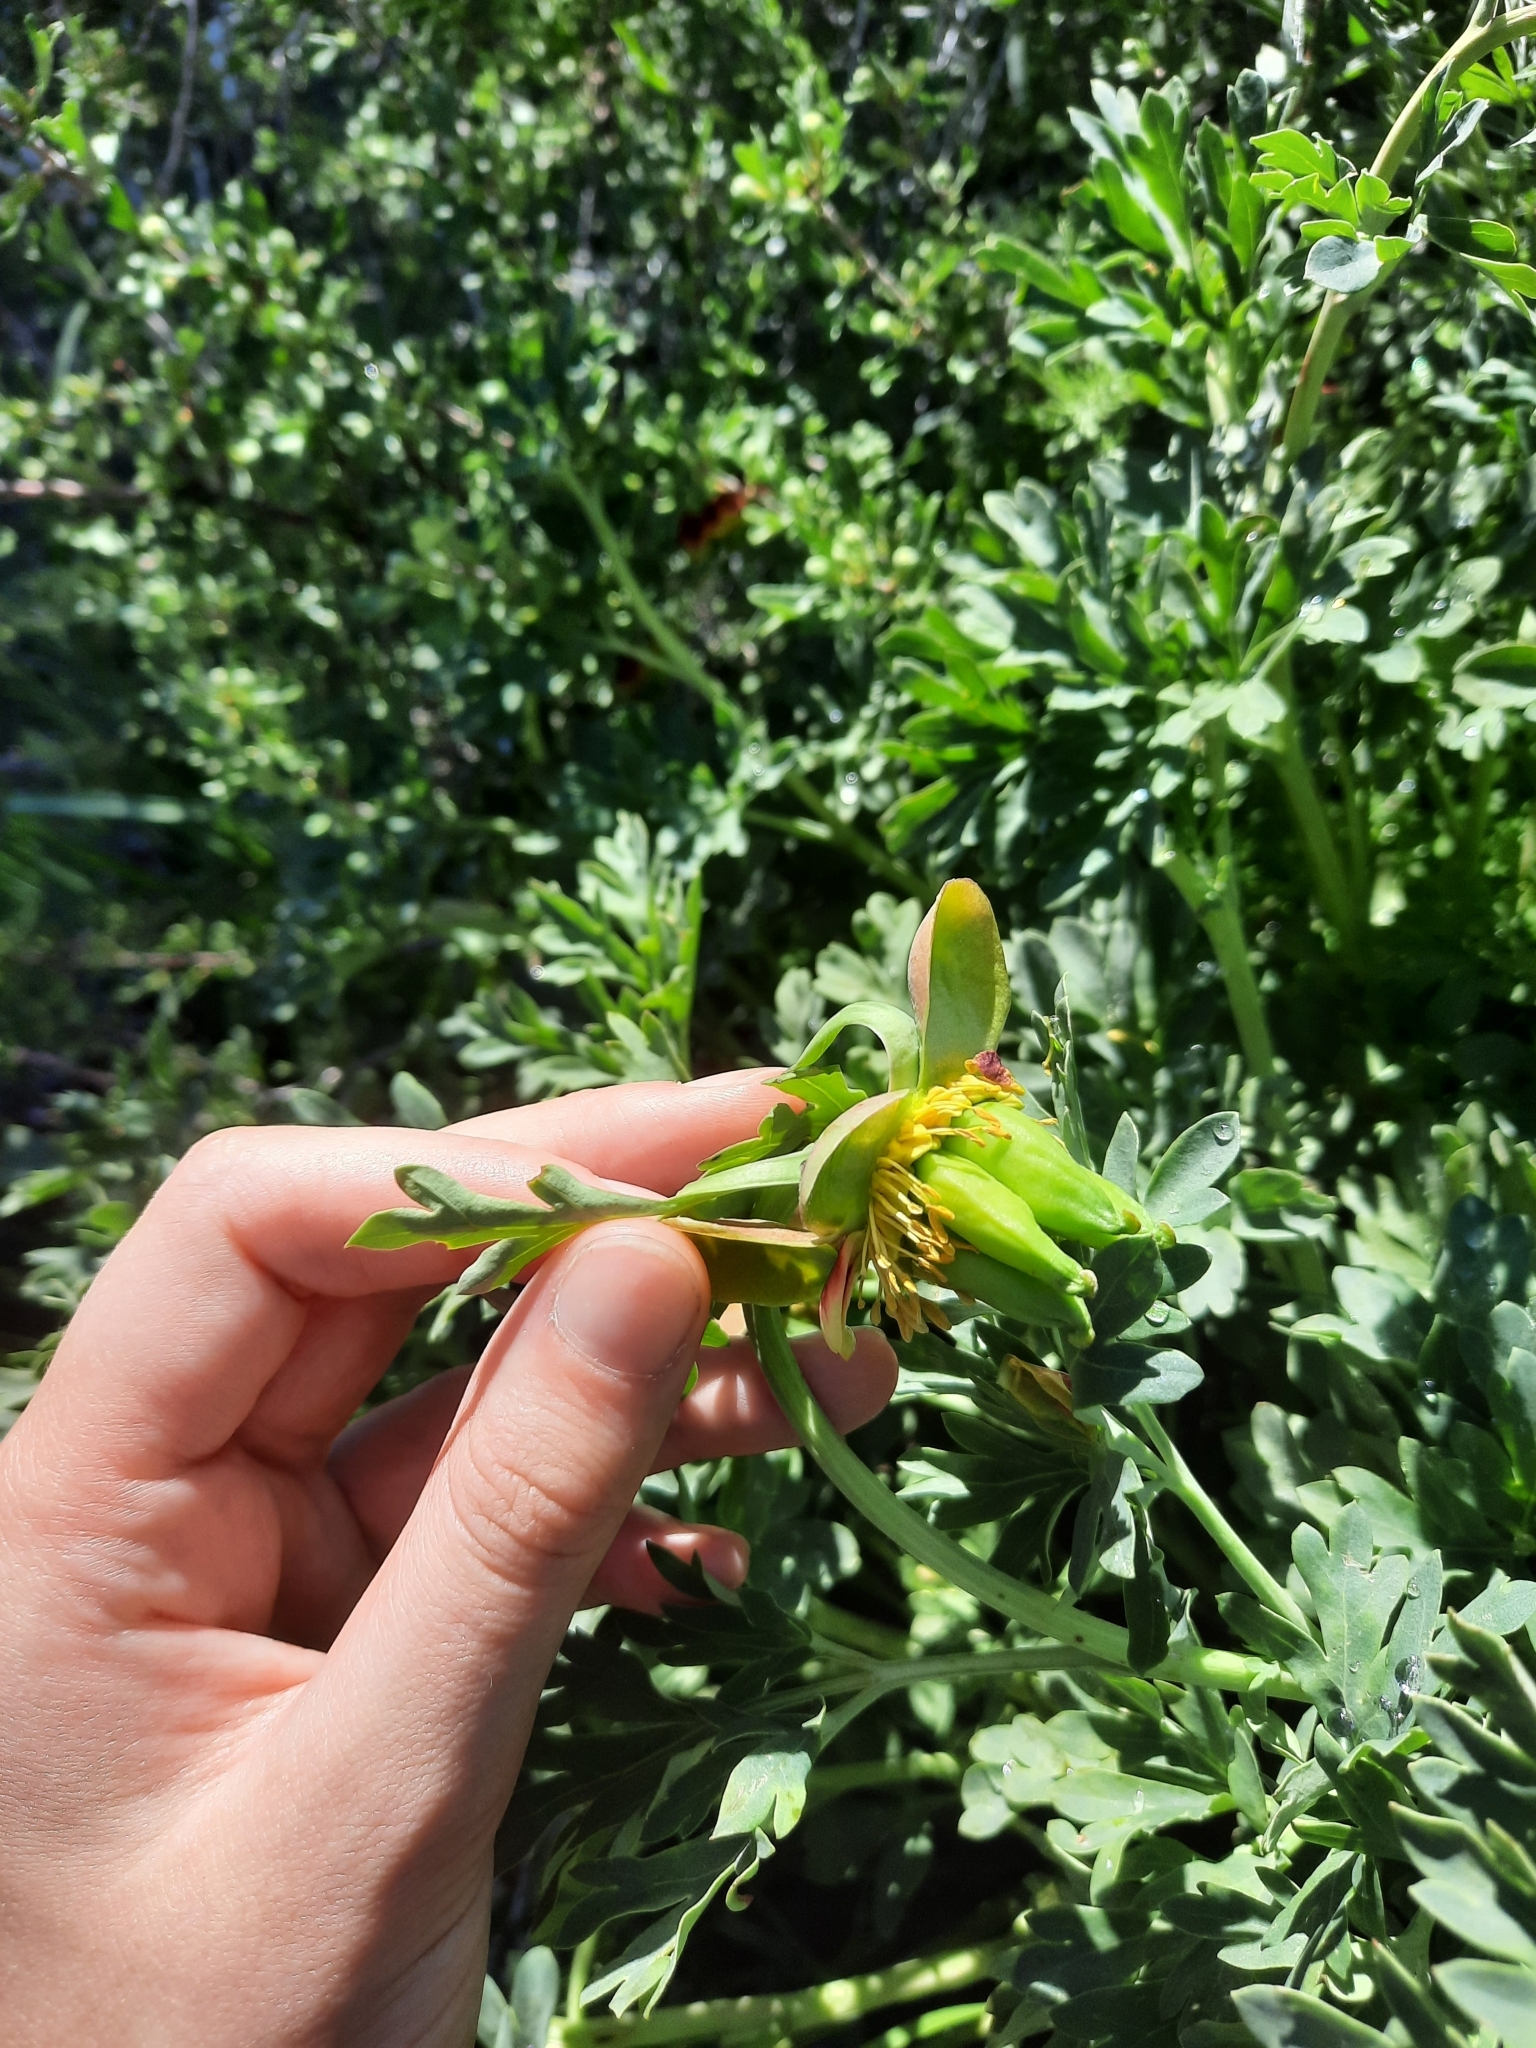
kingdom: Plantae
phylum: Tracheophyta
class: Magnoliopsida
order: Saxifragales
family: Paeoniaceae
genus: Paeonia
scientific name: Paeonia brownii
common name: Brown's peony
